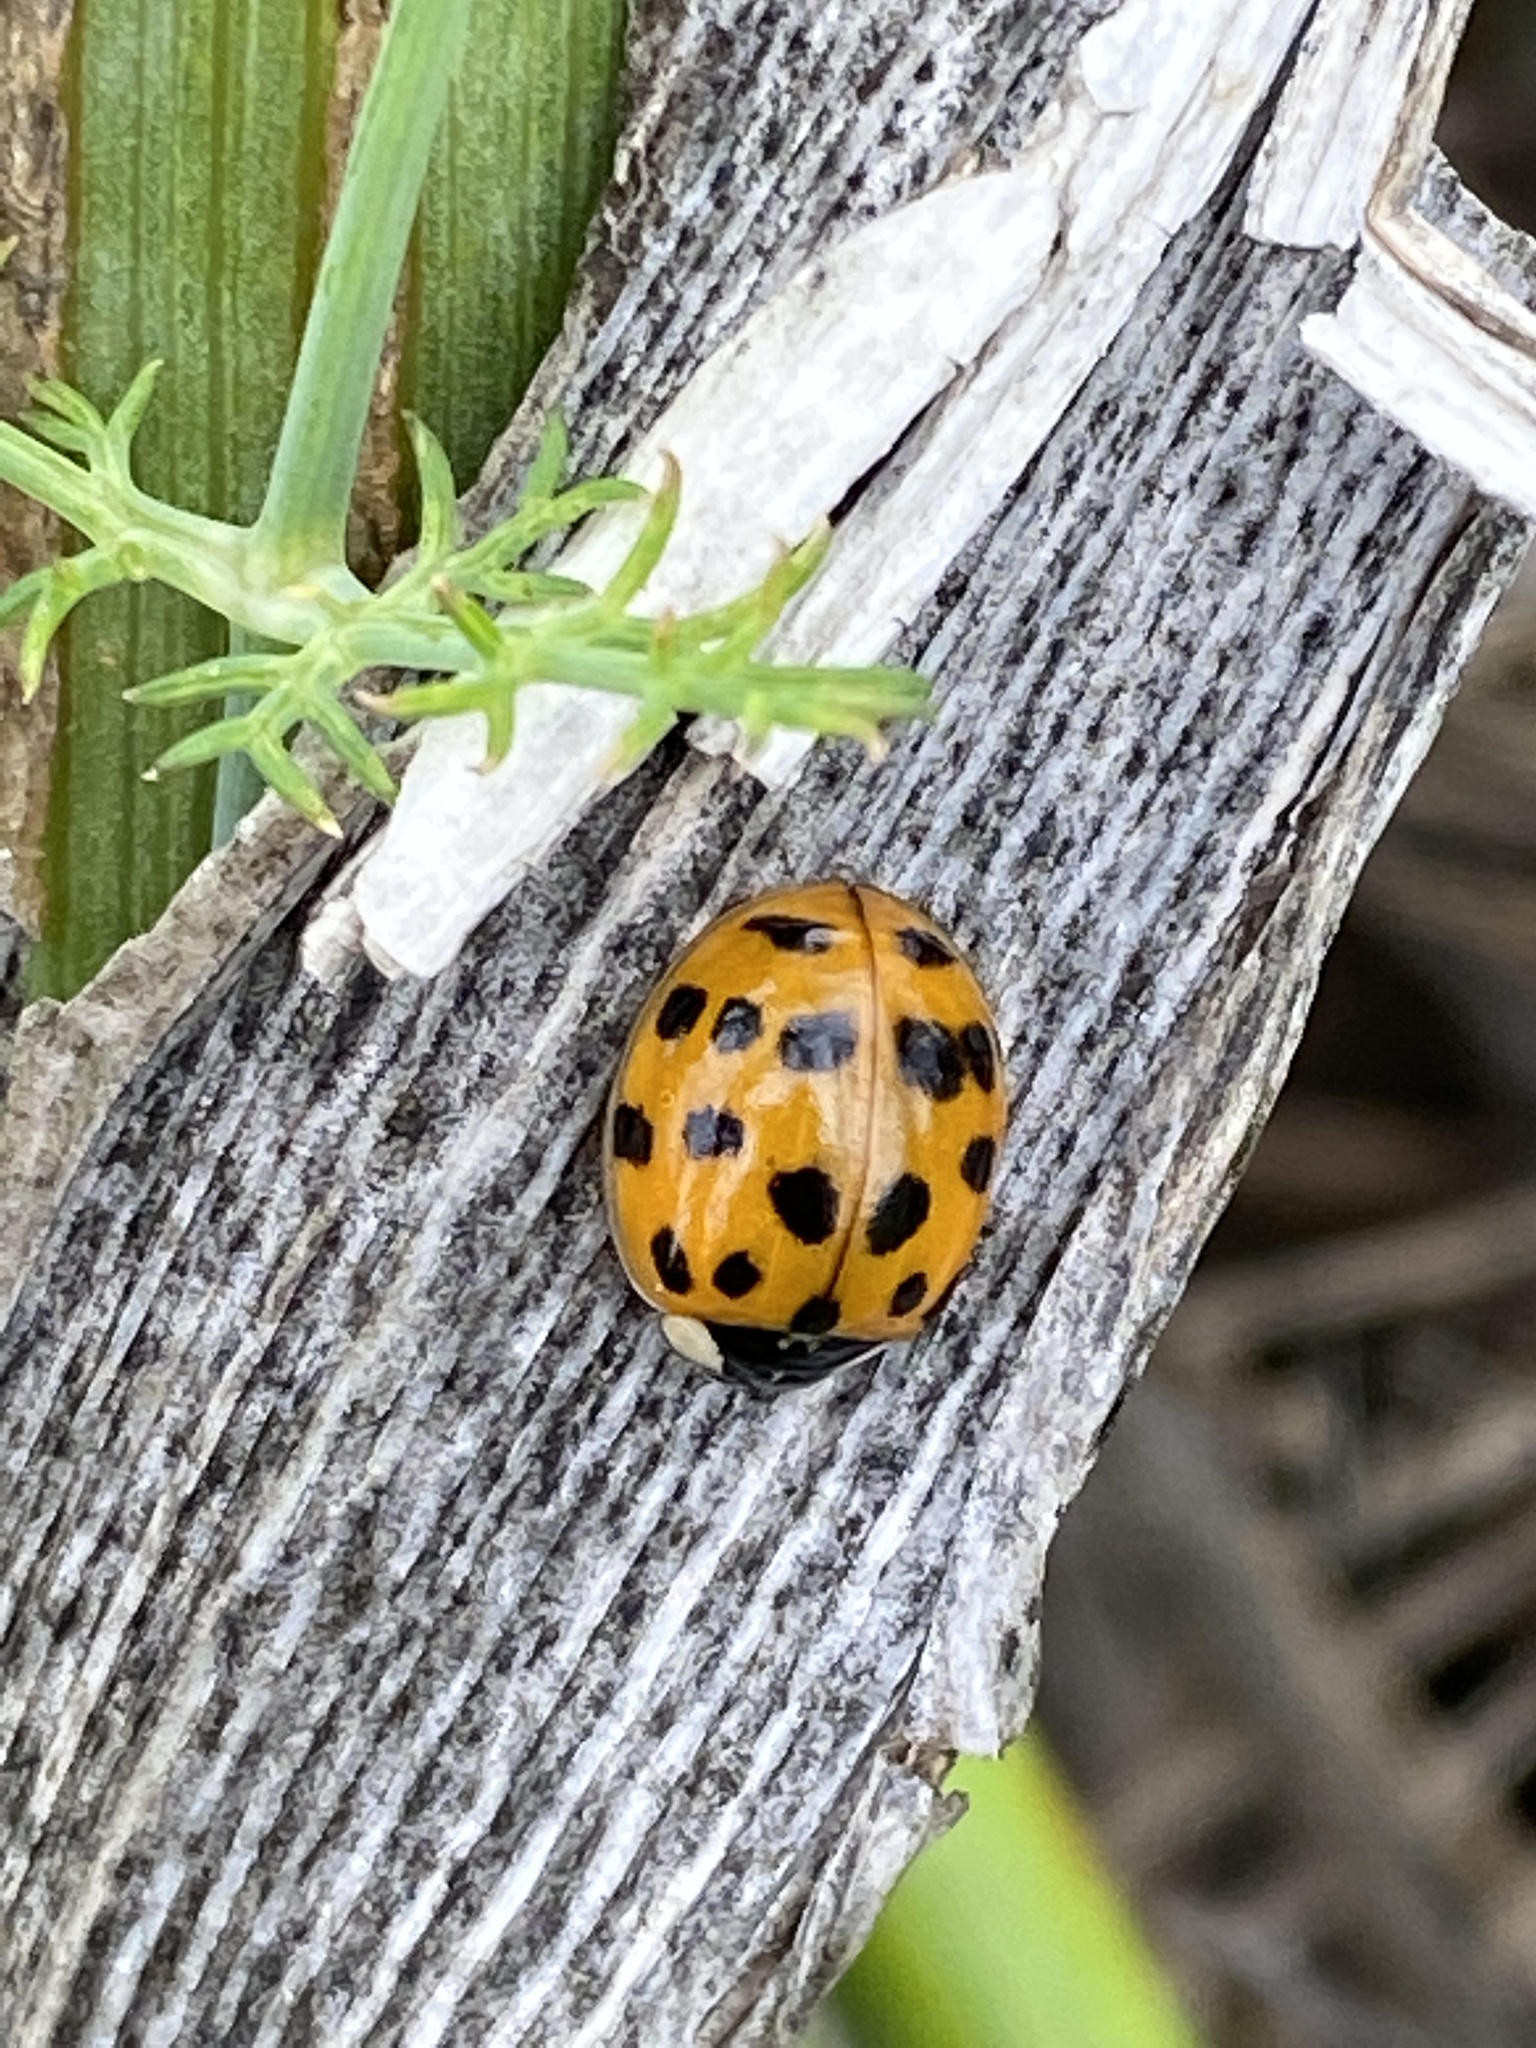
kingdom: Animalia
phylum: Arthropoda
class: Insecta
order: Coleoptera
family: Coccinellidae
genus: Harmonia
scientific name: Harmonia axyridis
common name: Harlequin ladybird
